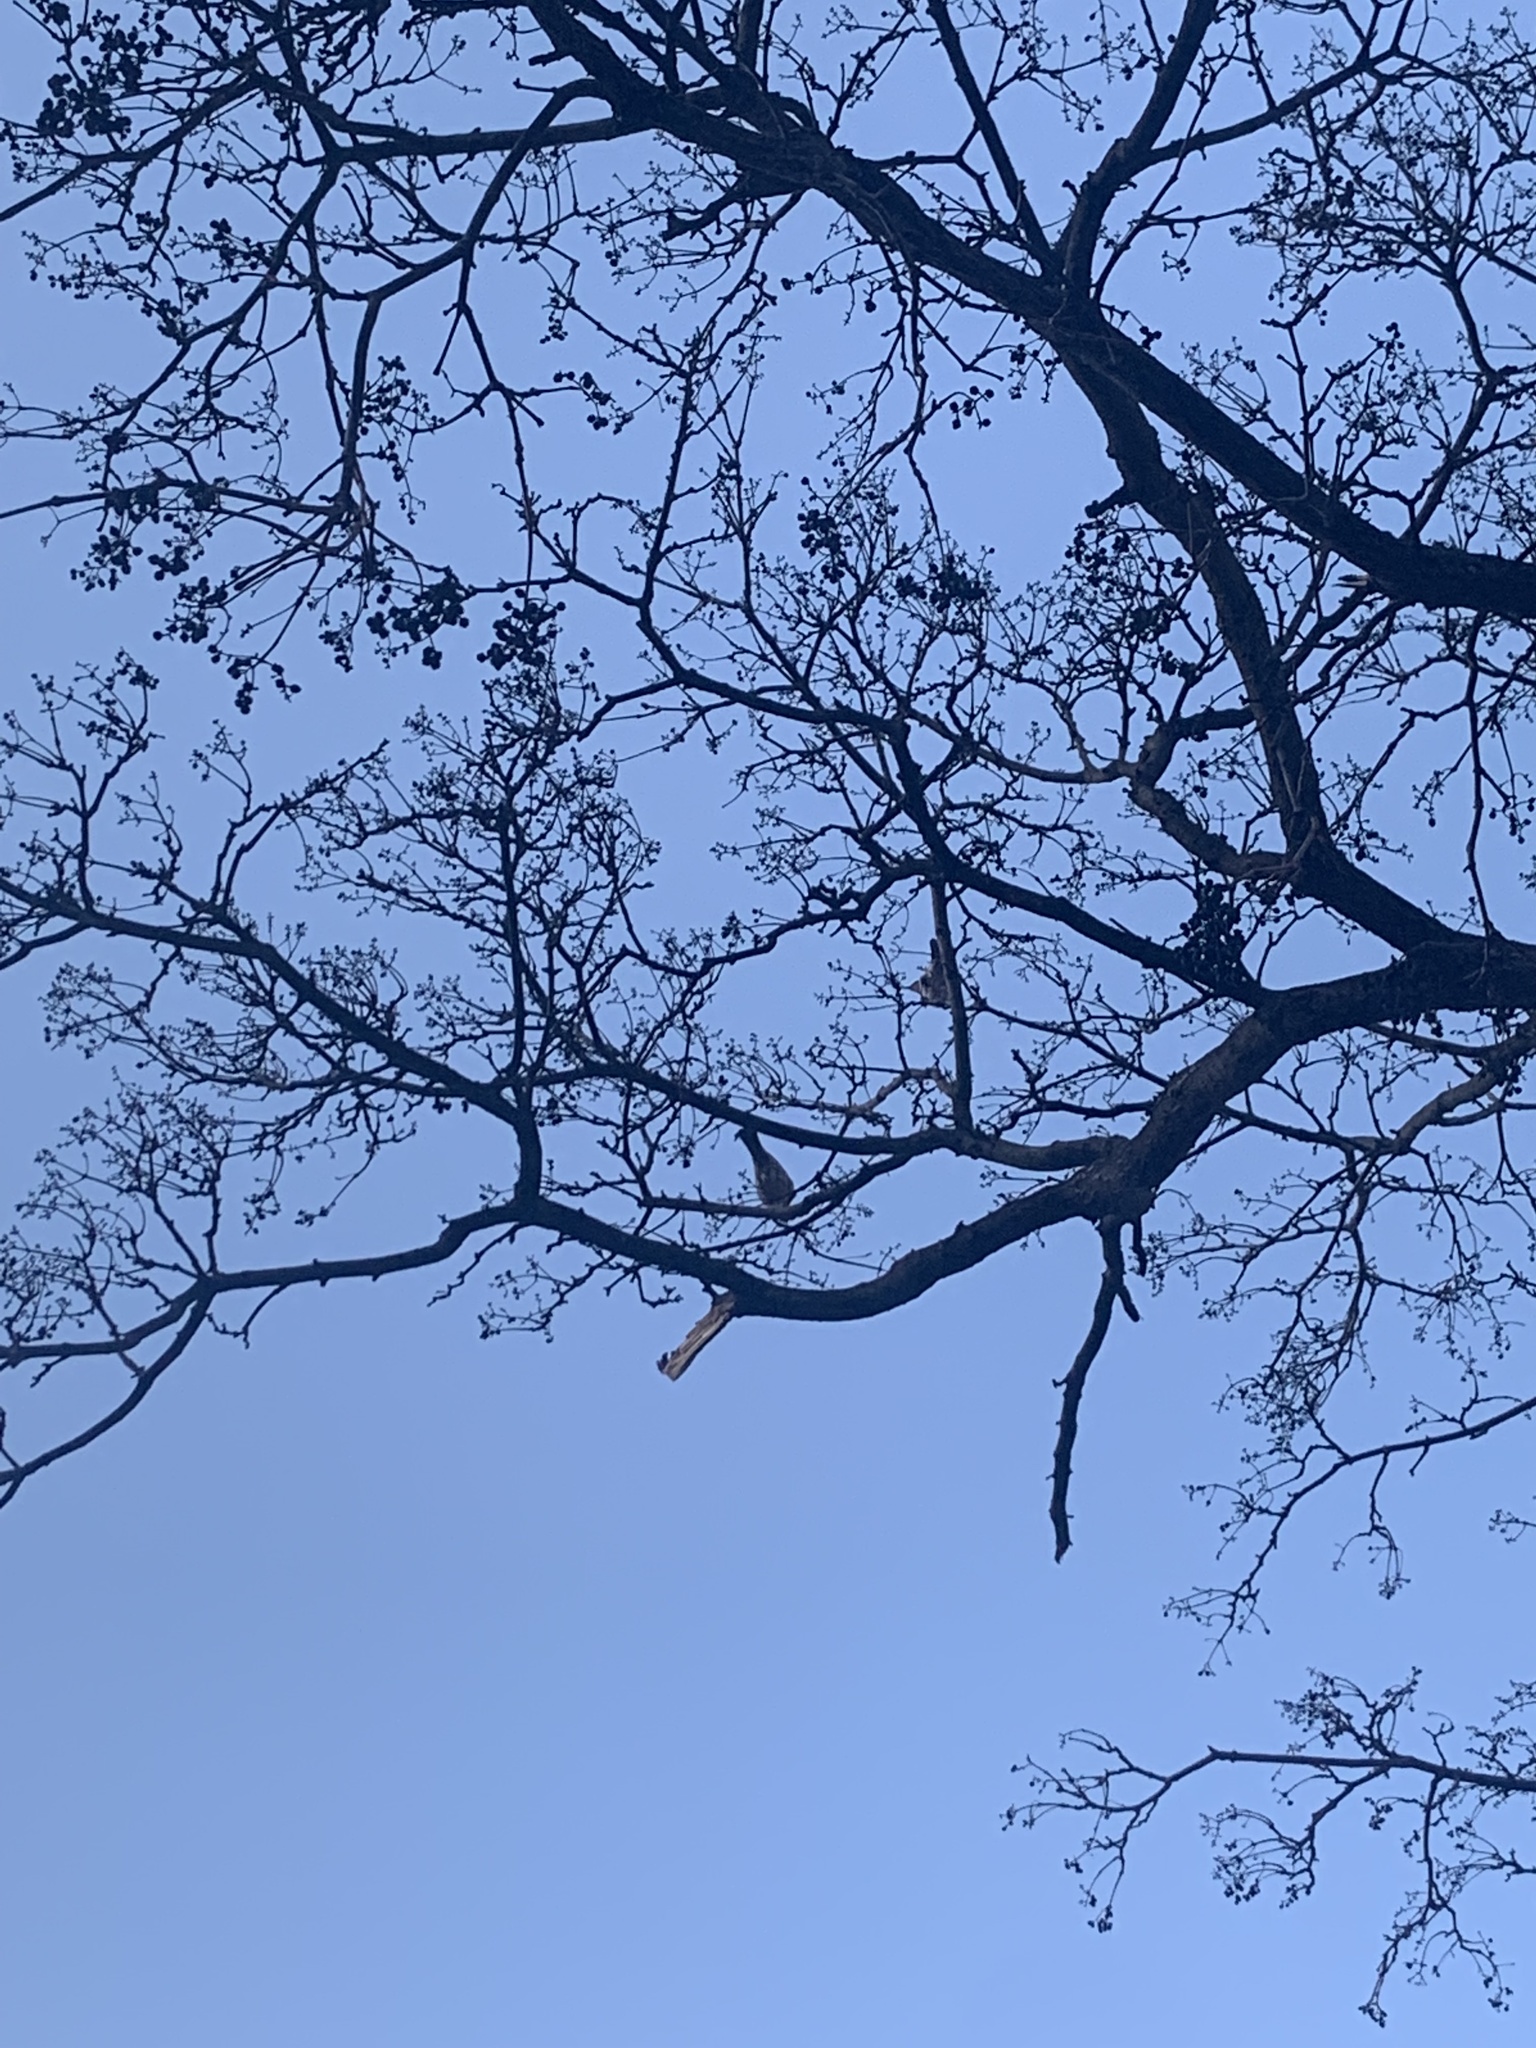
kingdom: Animalia
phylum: Chordata
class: Aves
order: Passeriformes
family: Turdidae
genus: Turdus
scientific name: Turdus pilaris
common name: Fieldfare
